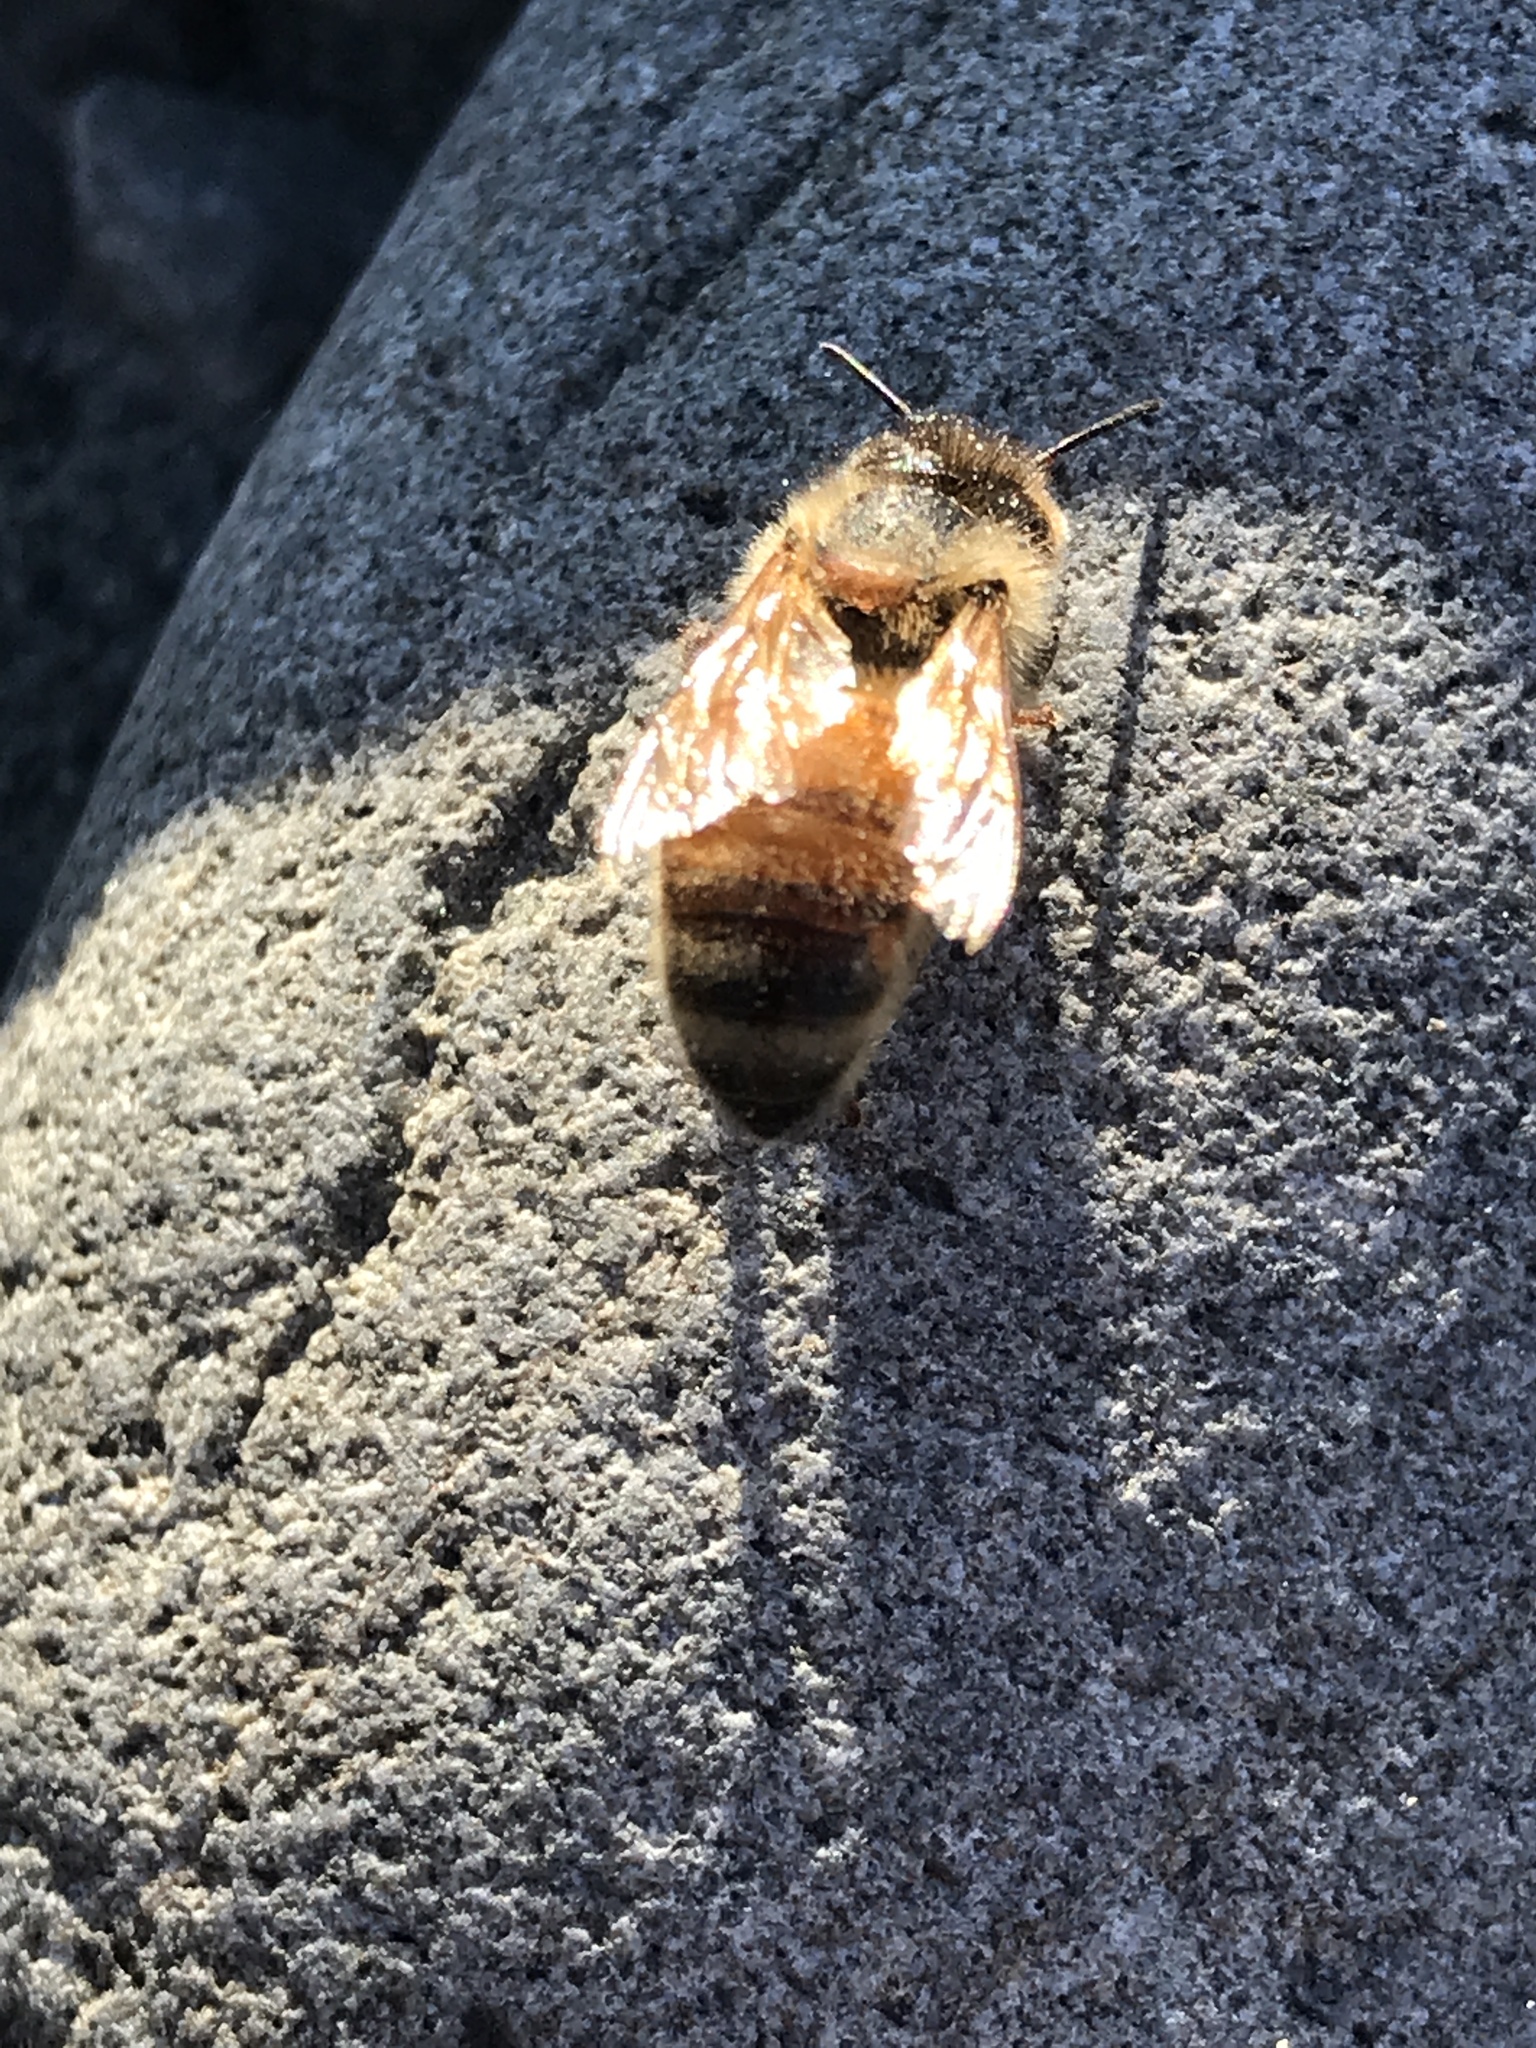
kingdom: Animalia
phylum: Arthropoda
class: Insecta
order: Hymenoptera
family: Apidae
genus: Apis
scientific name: Apis mellifera
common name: Honey bee
